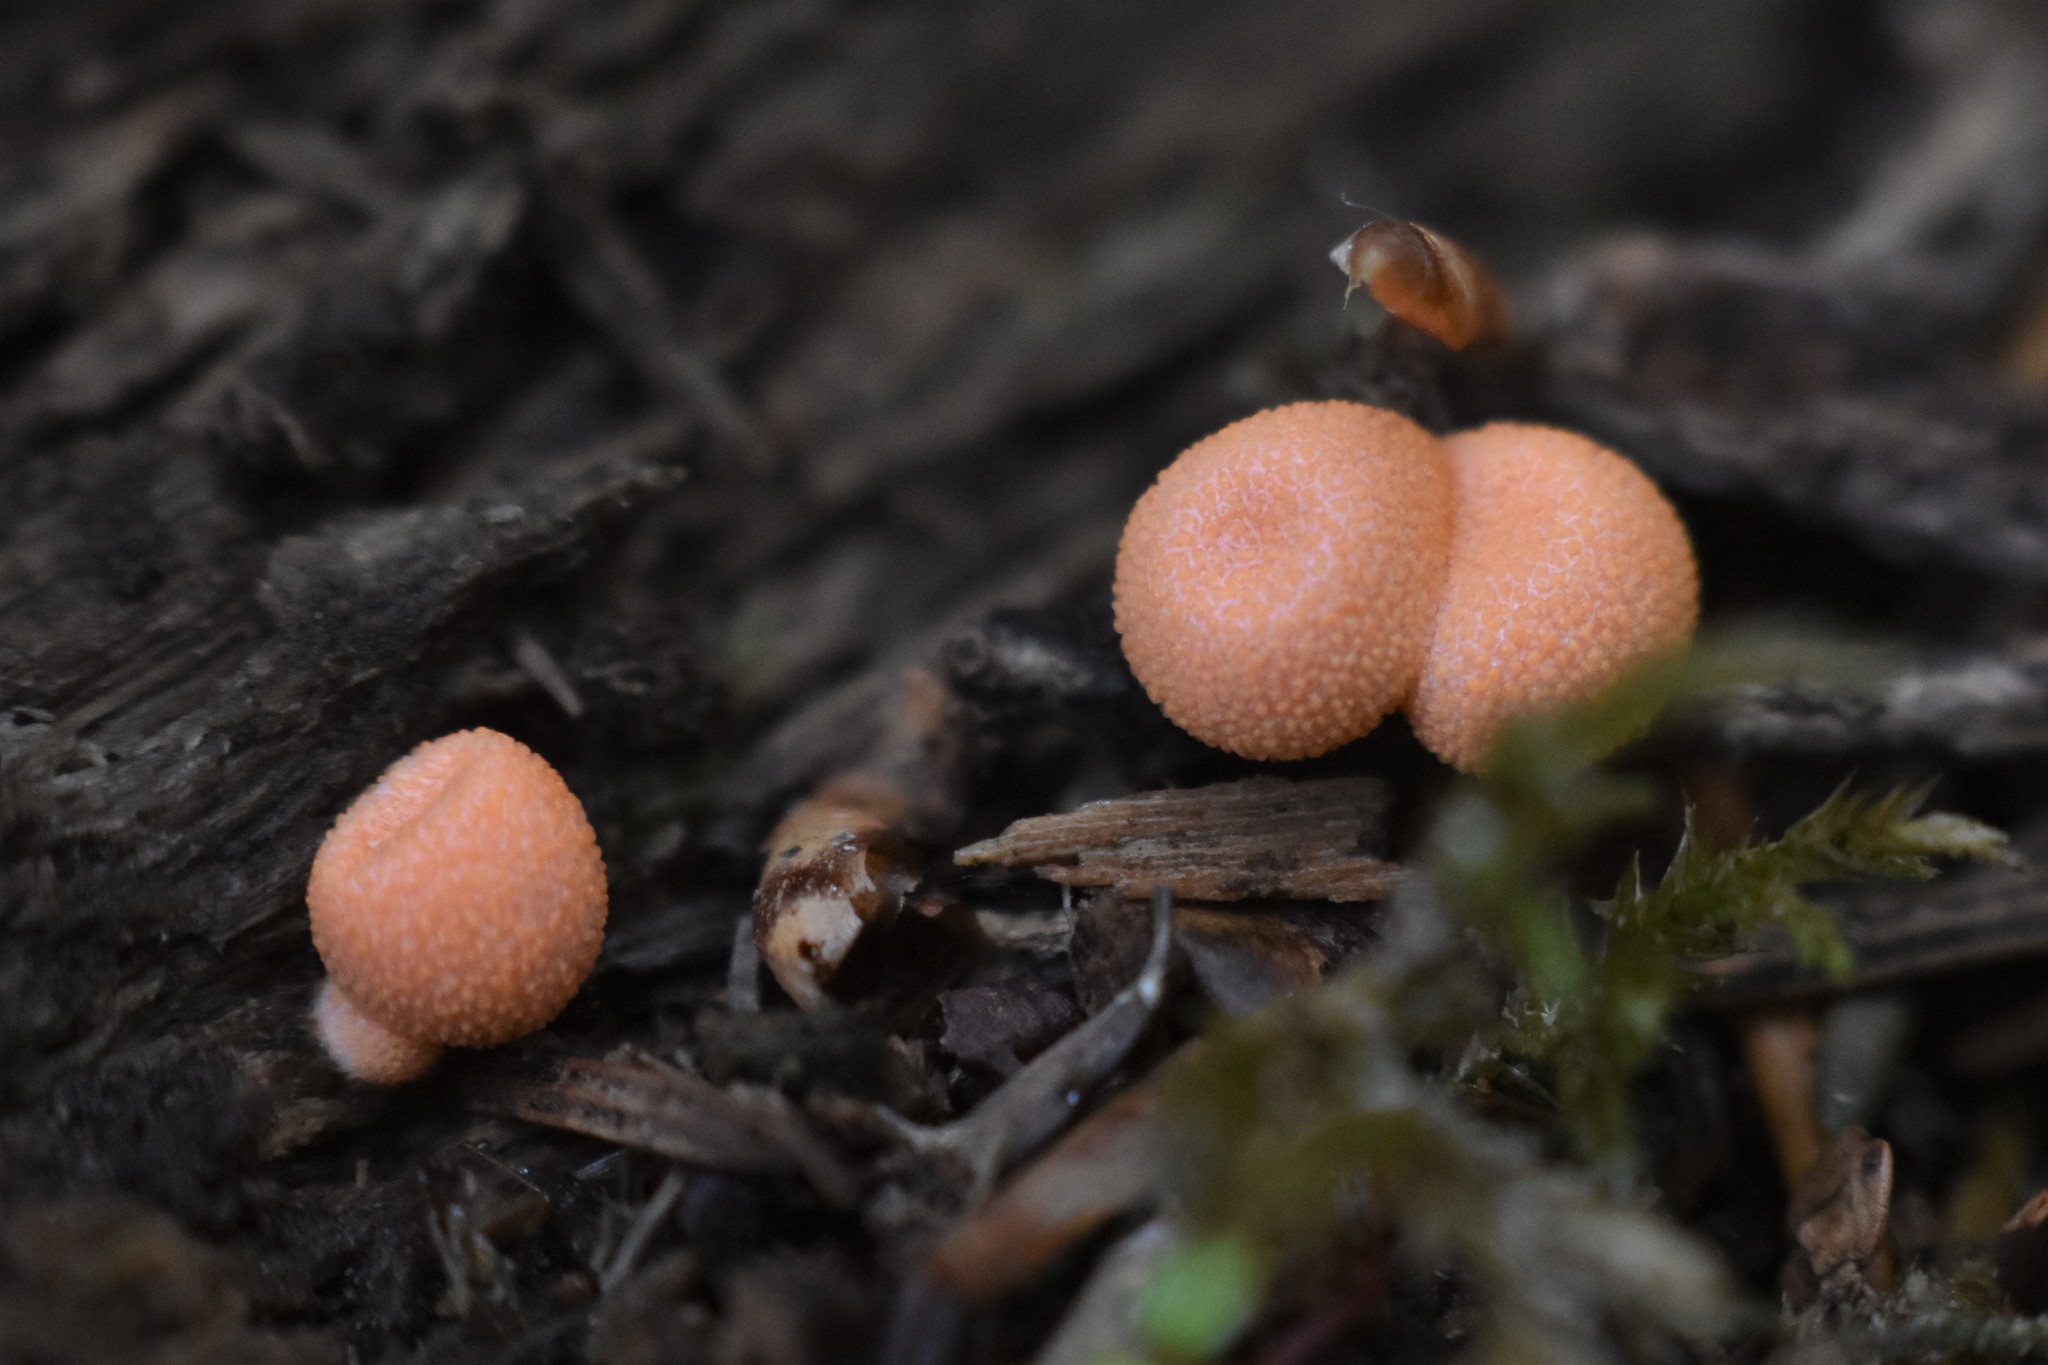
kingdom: Protozoa
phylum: Mycetozoa
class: Myxomycetes
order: Cribrariales
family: Tubiferaceae
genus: Lycogala
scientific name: Lycogala epidendrum
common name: Wolf's milk
